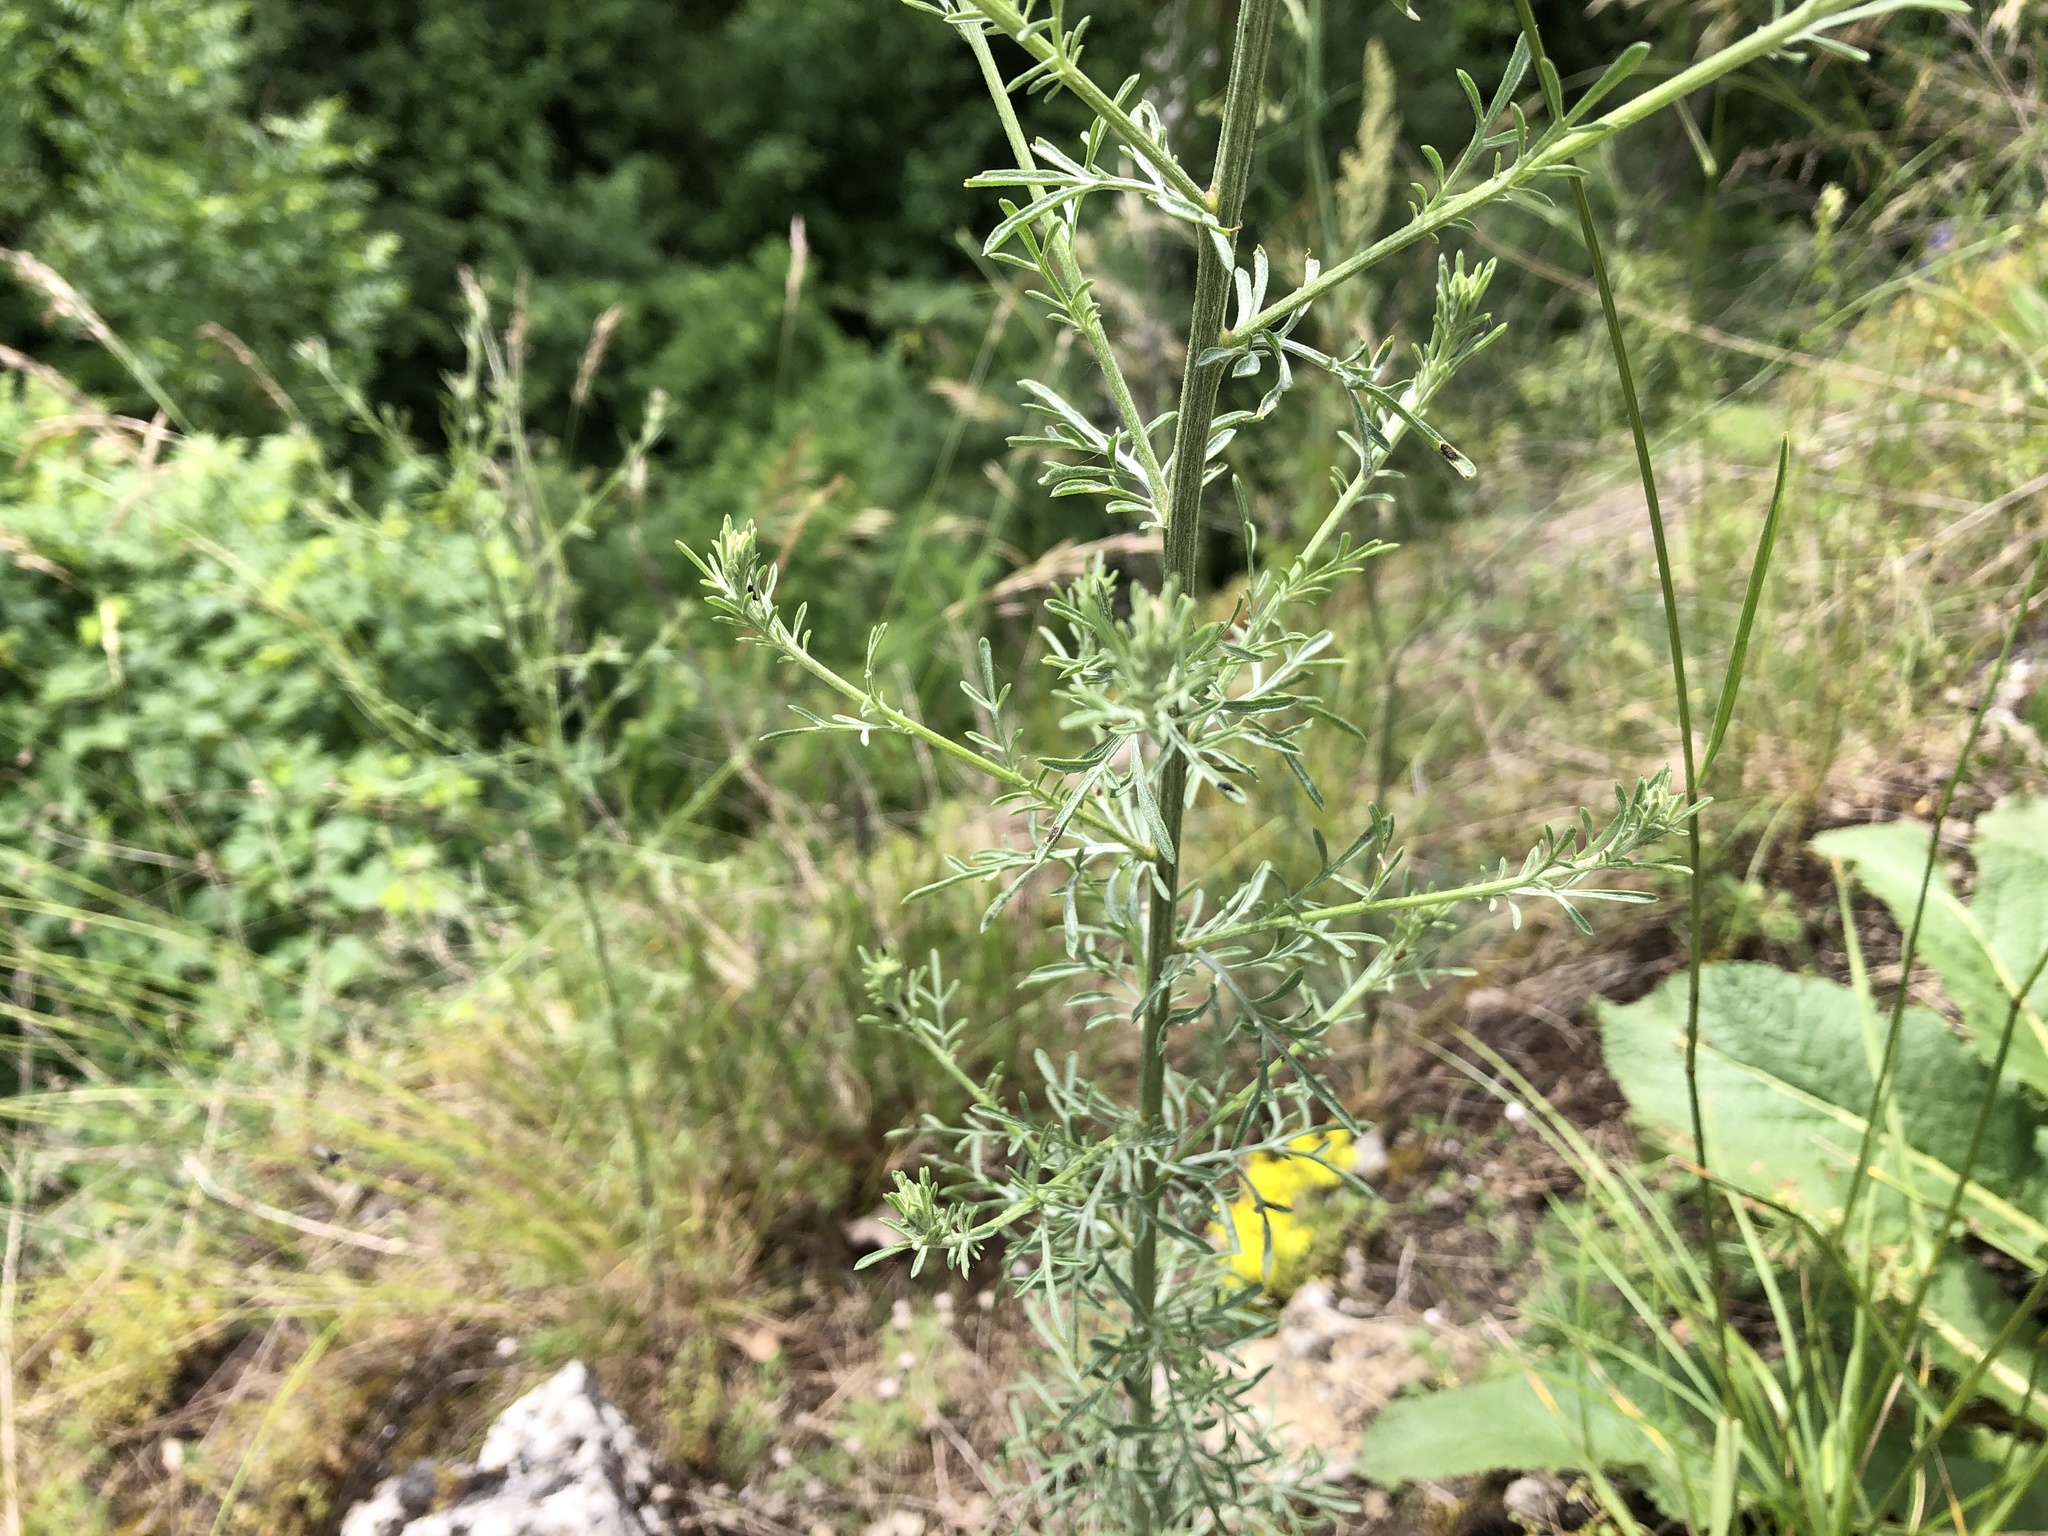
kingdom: Plantae
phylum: Tracheophyta
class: Magnoliopsida
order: Asterales
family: Asteraceae
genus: Centaurea
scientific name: Centaurea stoebe
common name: Spotted knapweed
